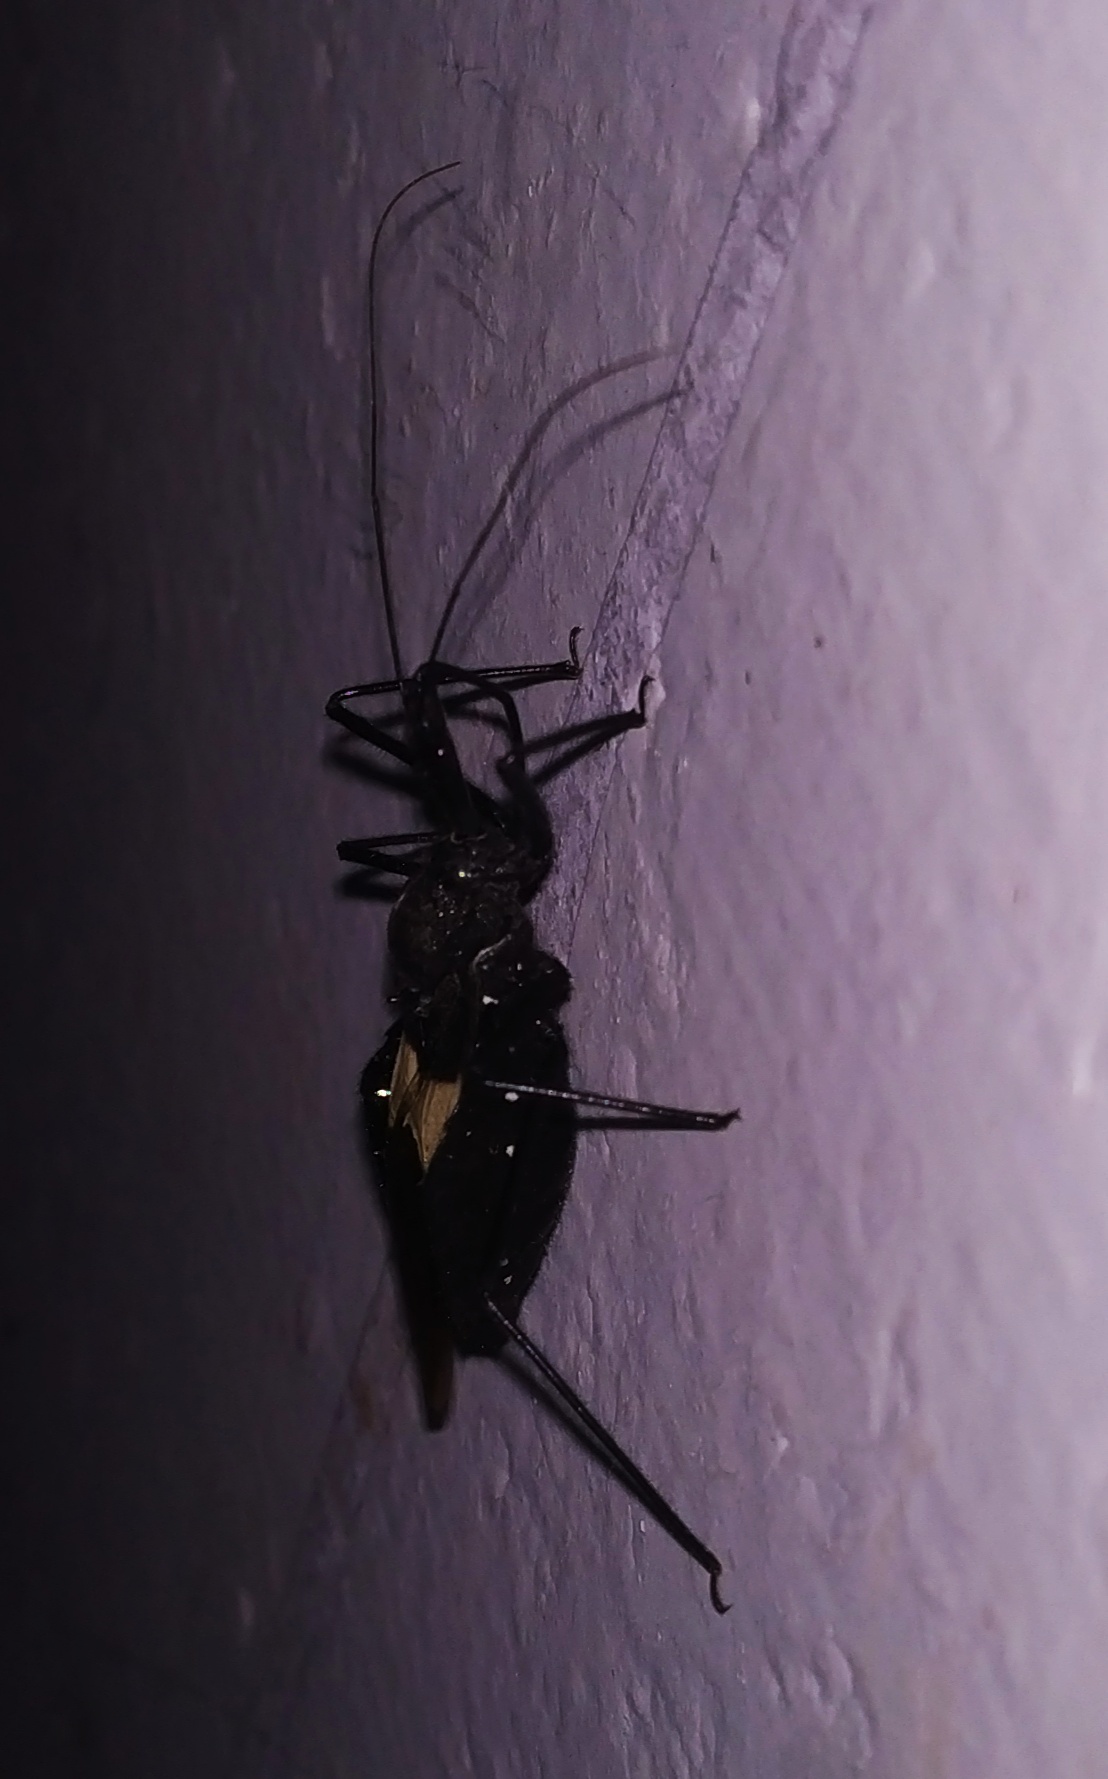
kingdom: Animalia
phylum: Arthropoda
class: Insecta
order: Hemiptera
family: Reduviidae
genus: Sycanus
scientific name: Sycanus collaris
